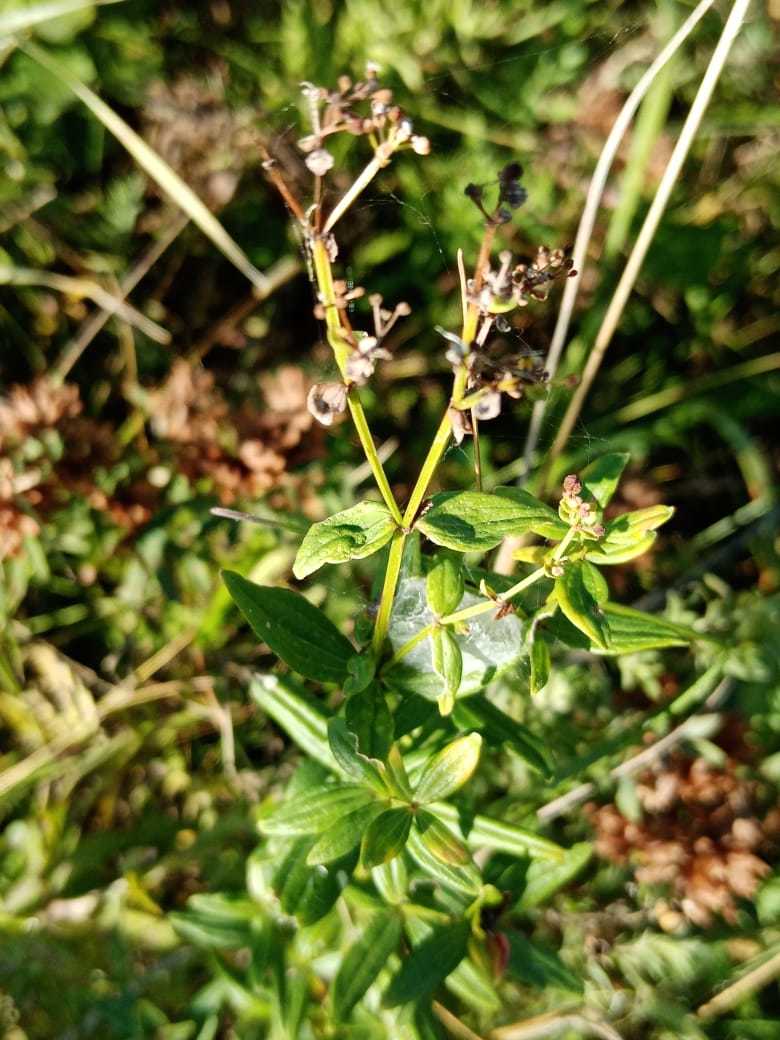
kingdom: Plantae
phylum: Tracheophyta
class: Magnoliopsida
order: Gentianales
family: Rubiaceae
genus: Galium
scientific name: Galium boreale
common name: Northern bedstraw
